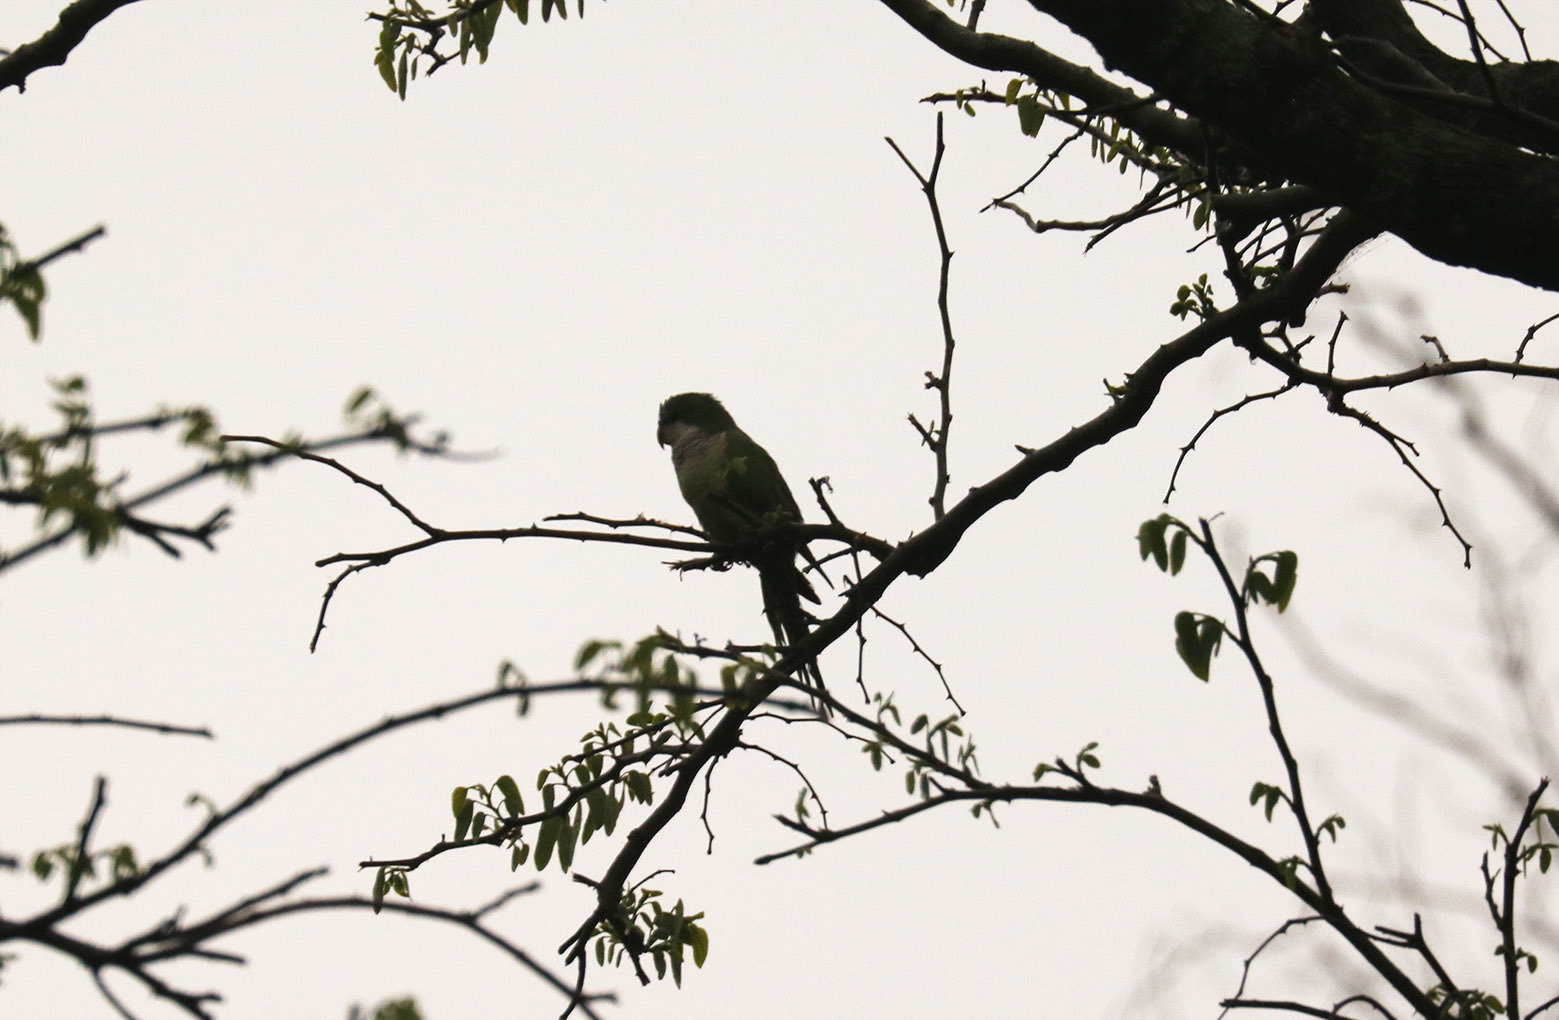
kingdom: Animalia
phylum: Chordata
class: Aves
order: Psittaciformes
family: Psittacidae
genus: Myiopsitta
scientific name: Myiopsitta monachus
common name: Monk parakeet
